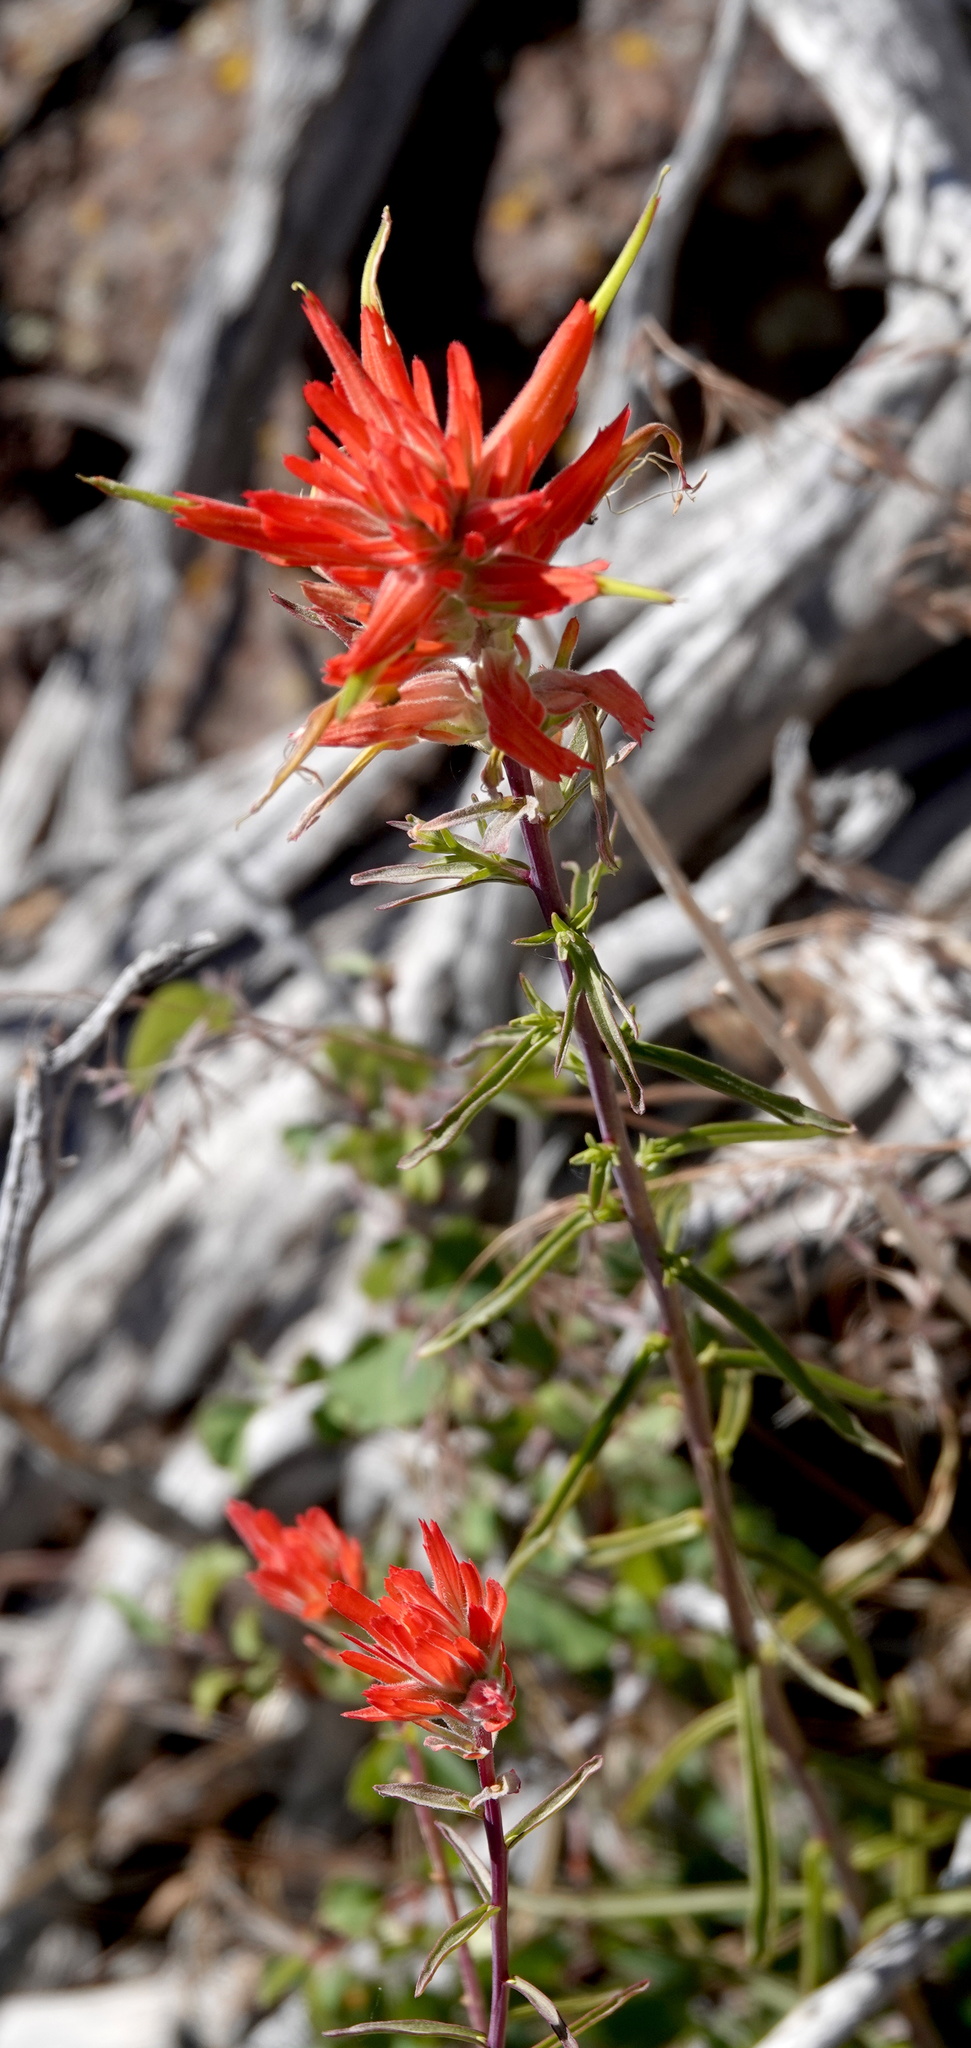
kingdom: Plantae
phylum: Tracheophyta
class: Magnoliopsida
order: Lamiales
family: Orobanchaceae
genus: Castilleja
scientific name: Castilleja linariifolia
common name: Wyoming paintbrush
